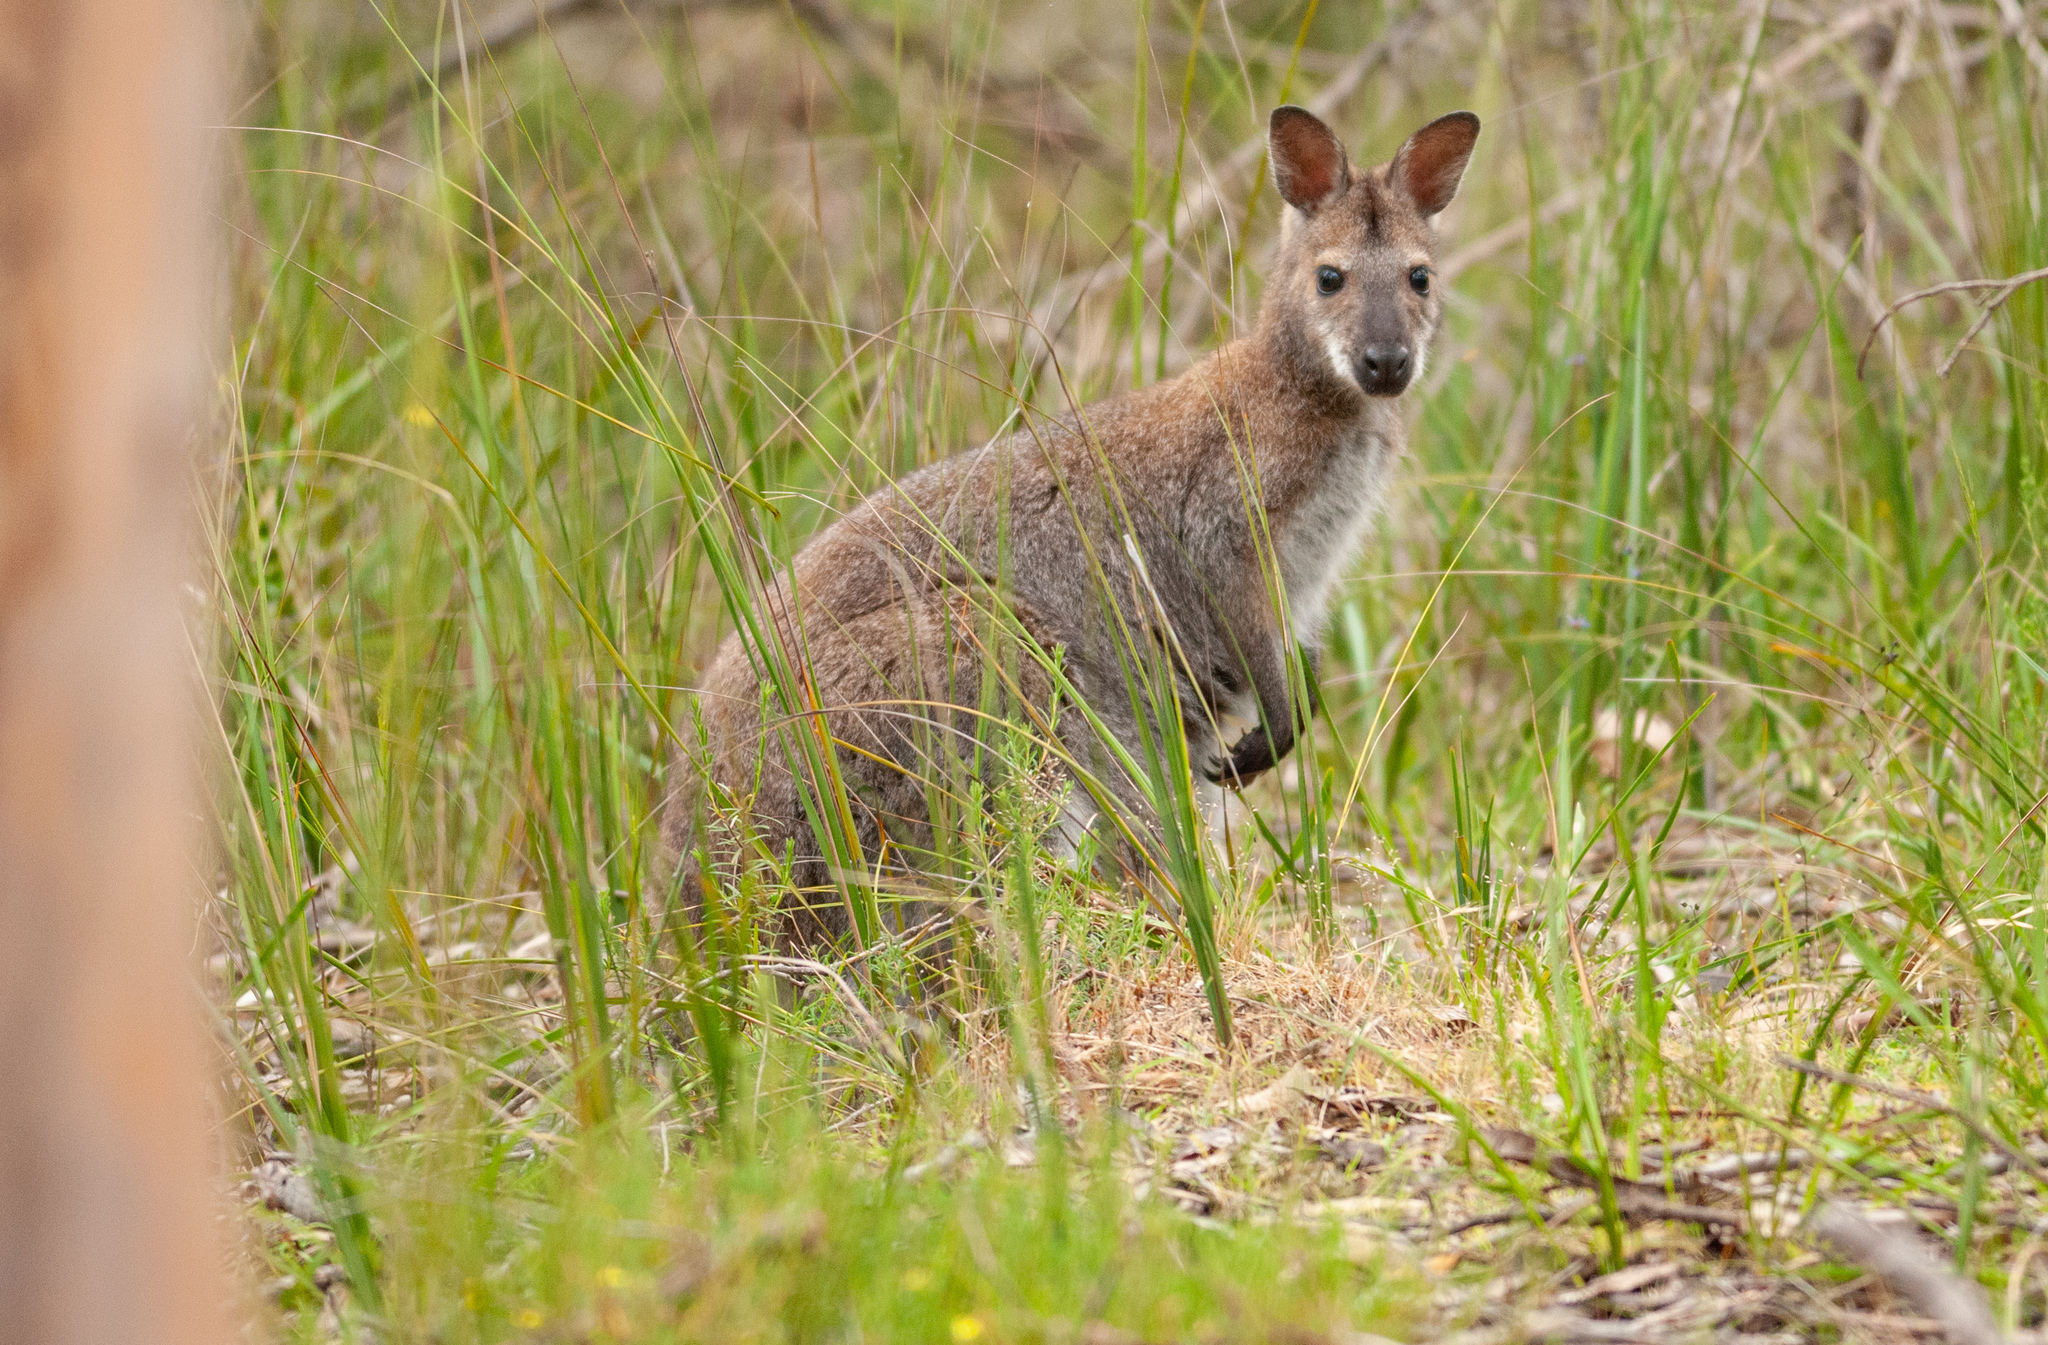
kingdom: Animalia
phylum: Chordata
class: Mammalia
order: Diprotodontia
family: Macropodidae
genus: Notamacropus
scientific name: Notamacropus rufogriseus
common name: Red-necked wallaby
